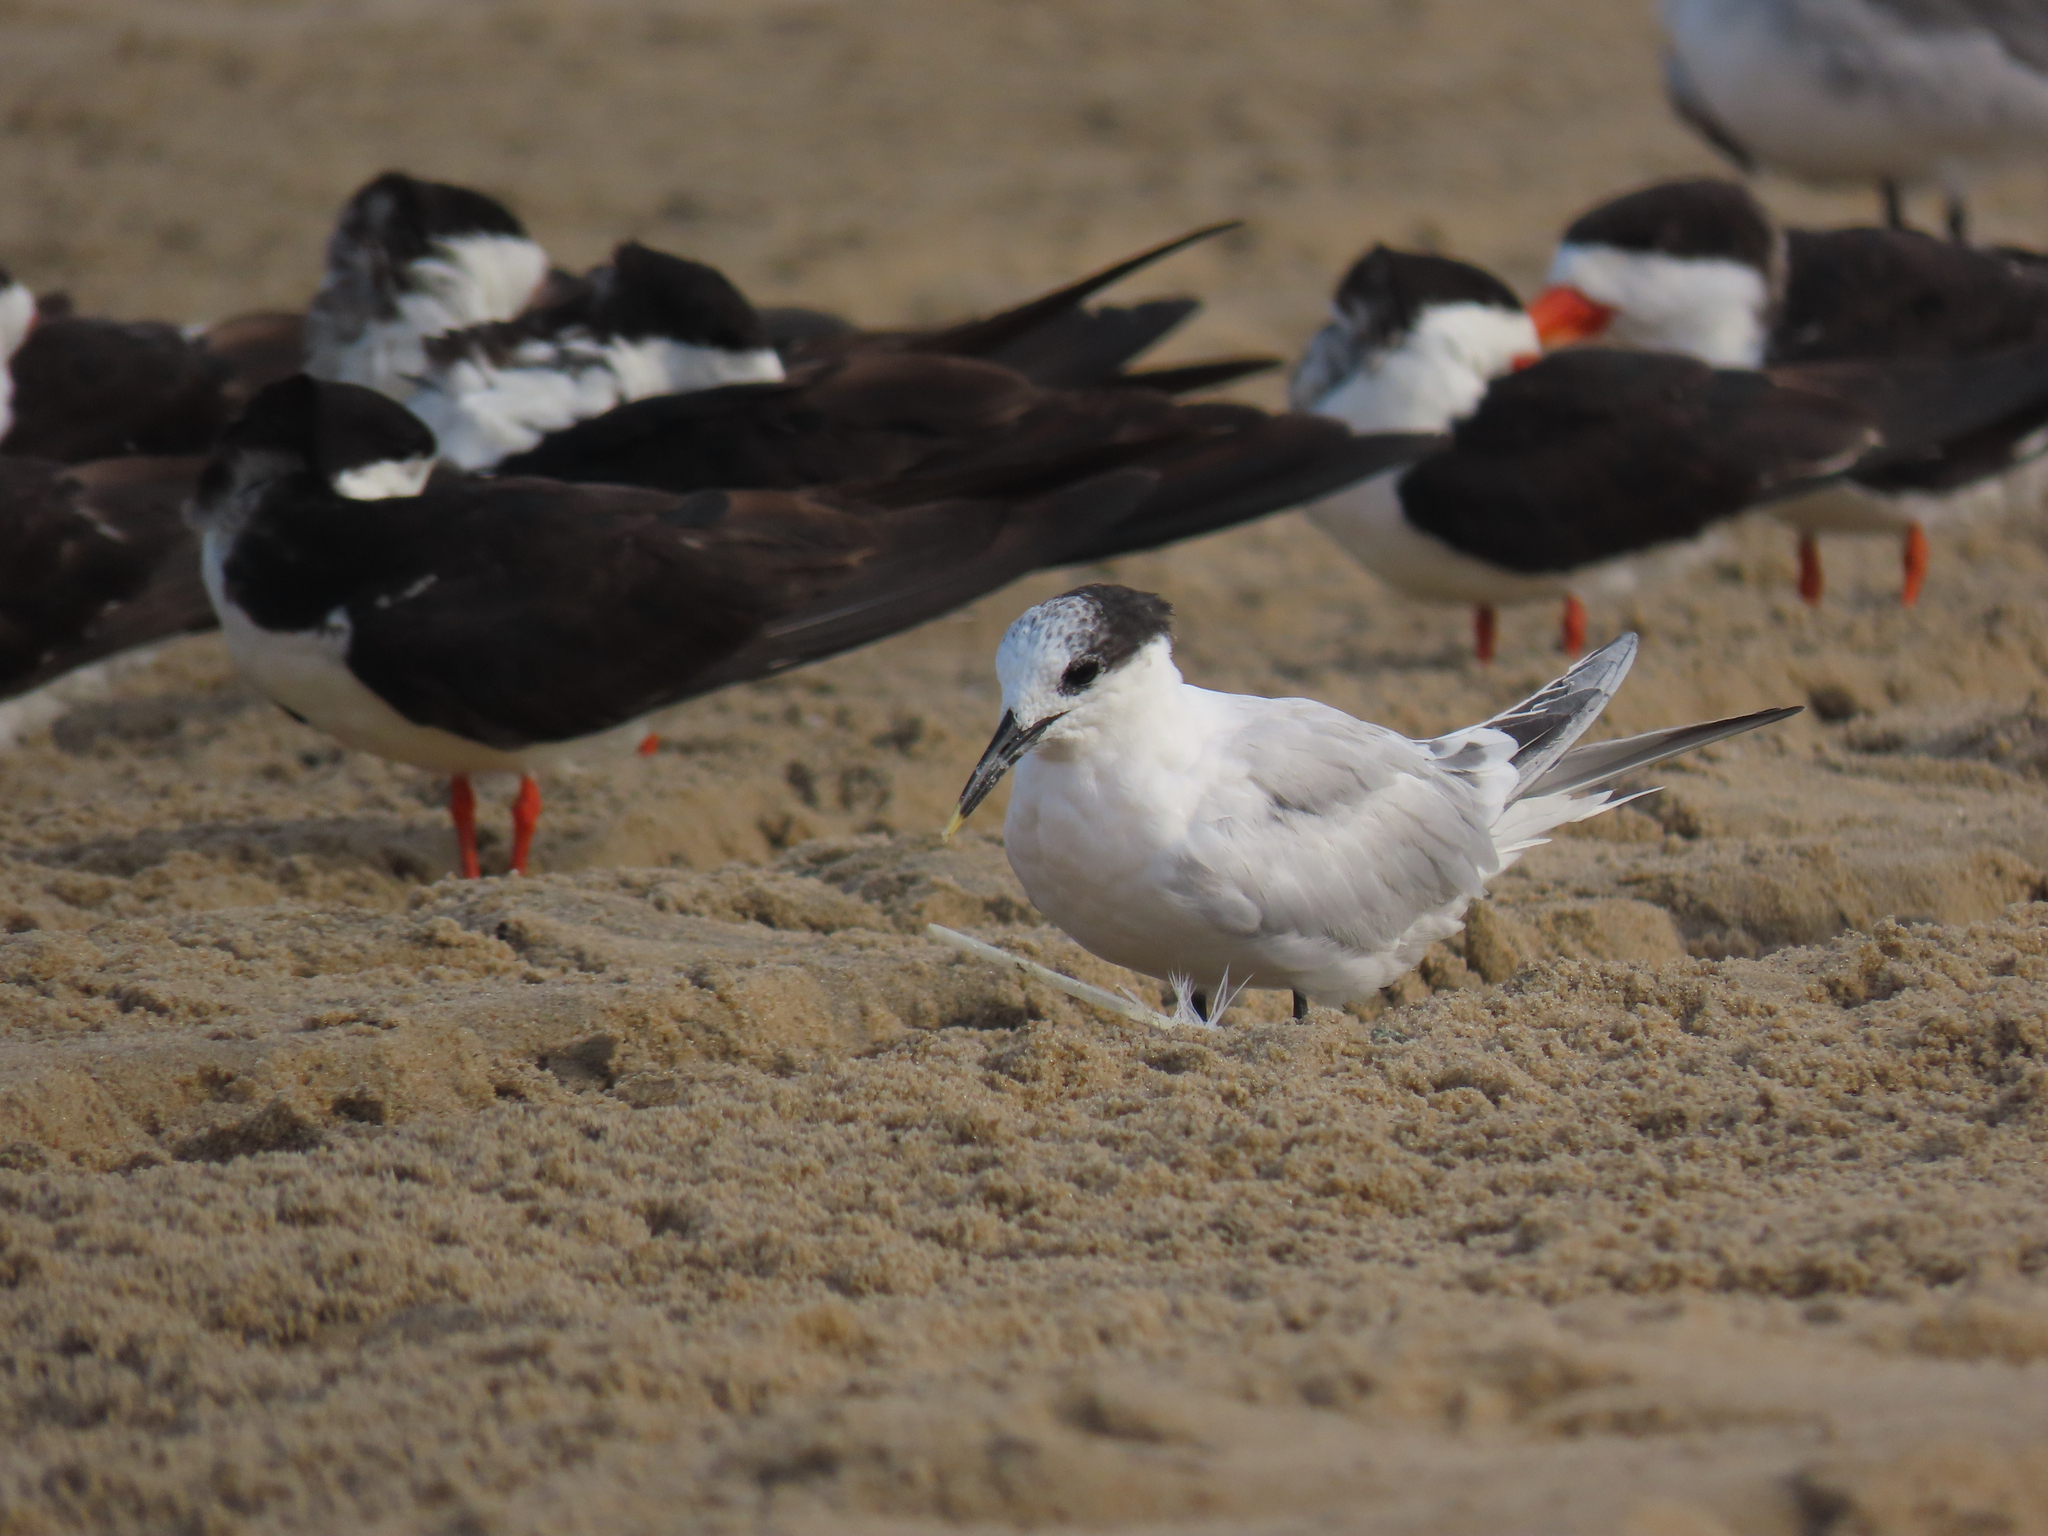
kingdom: Animalia
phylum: Chordata
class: Aves
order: Charadriiformes
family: Laridae
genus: Thalasseus
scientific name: Thalasseus sandvicensis
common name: Sandwich tern
